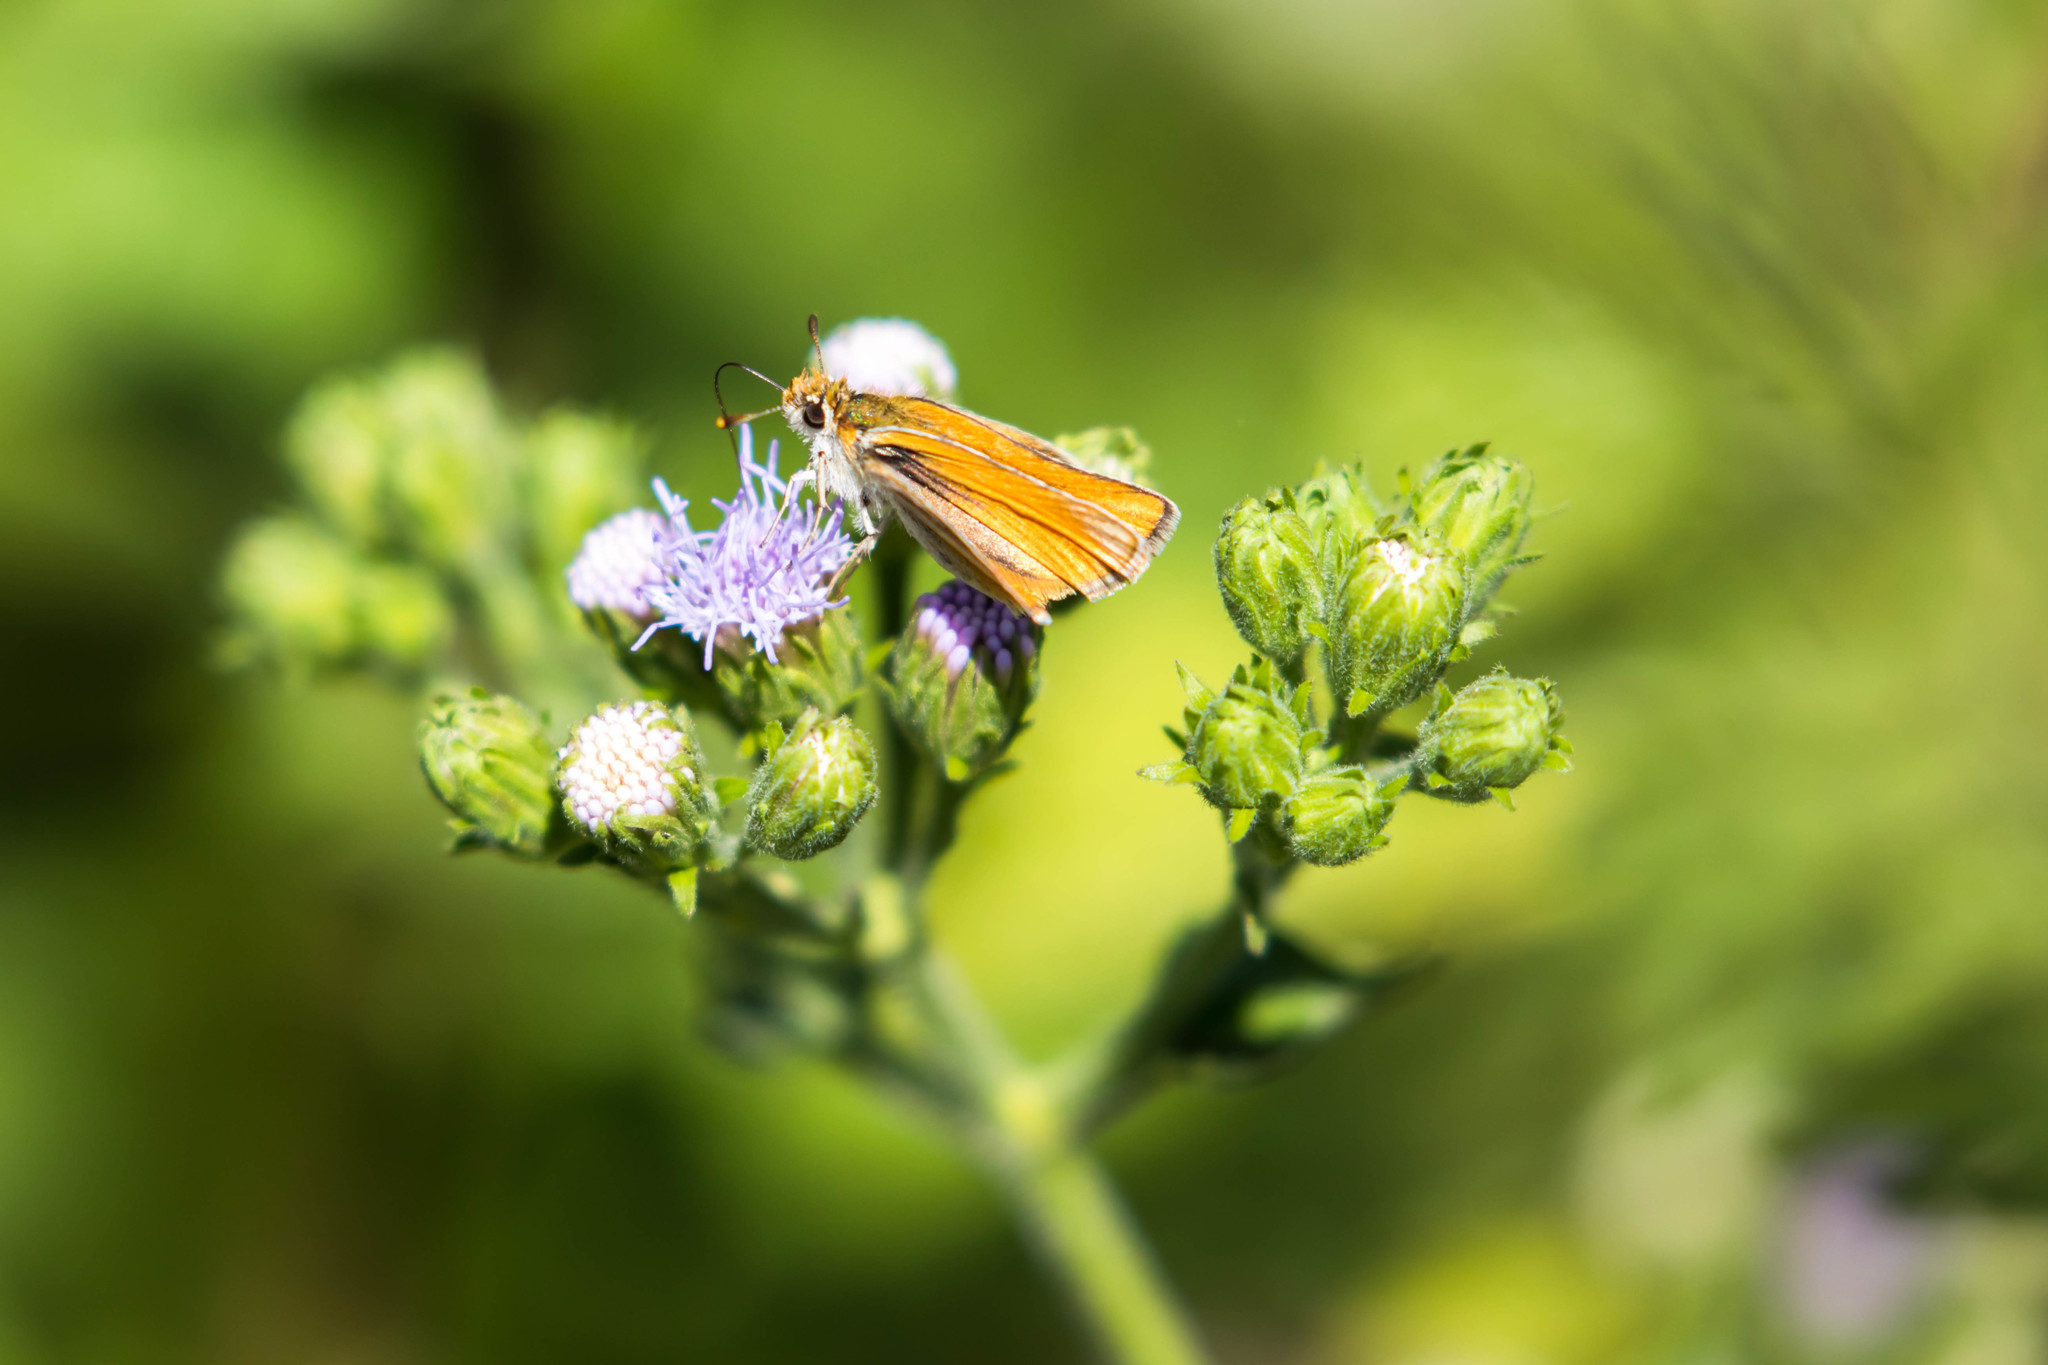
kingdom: Animalia
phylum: Arthropoda
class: Insecta
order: Lepidoptera
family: Hesperiidae
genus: Copaeodes
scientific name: Copaeodes minima
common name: Southern skipperling
